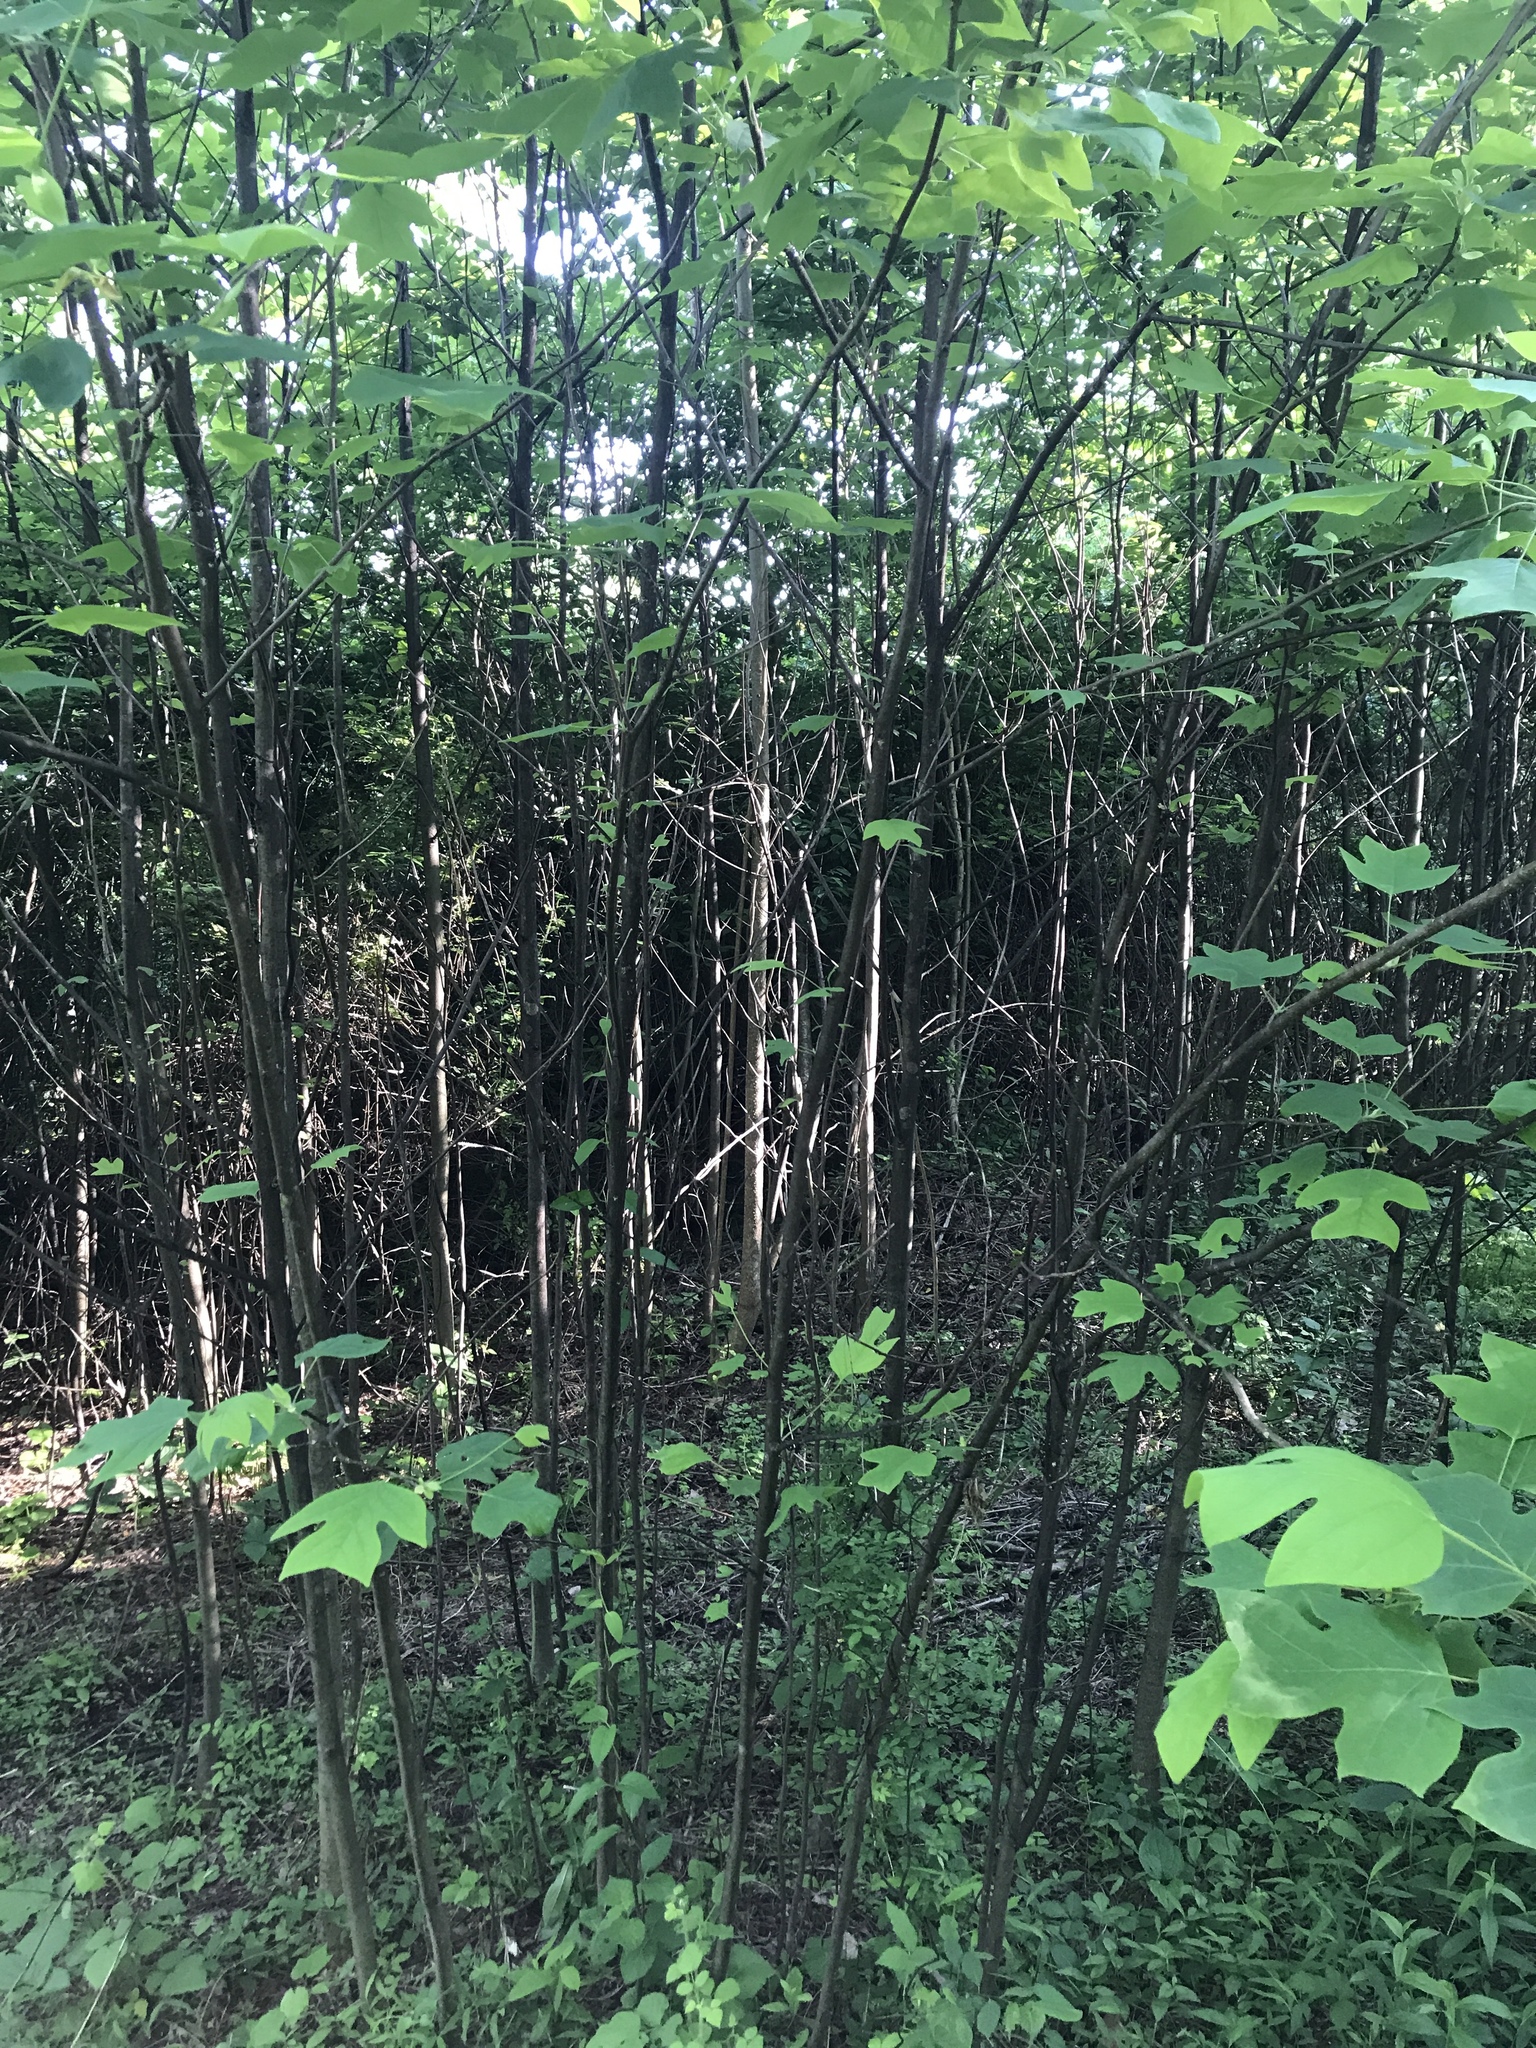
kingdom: Plantae
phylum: Tracheophyta
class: Magnoliopsida
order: Magnoliales
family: Magnoliaceae
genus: Liriodendron
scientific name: Liriodendron tulipifera
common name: Tulip tree
